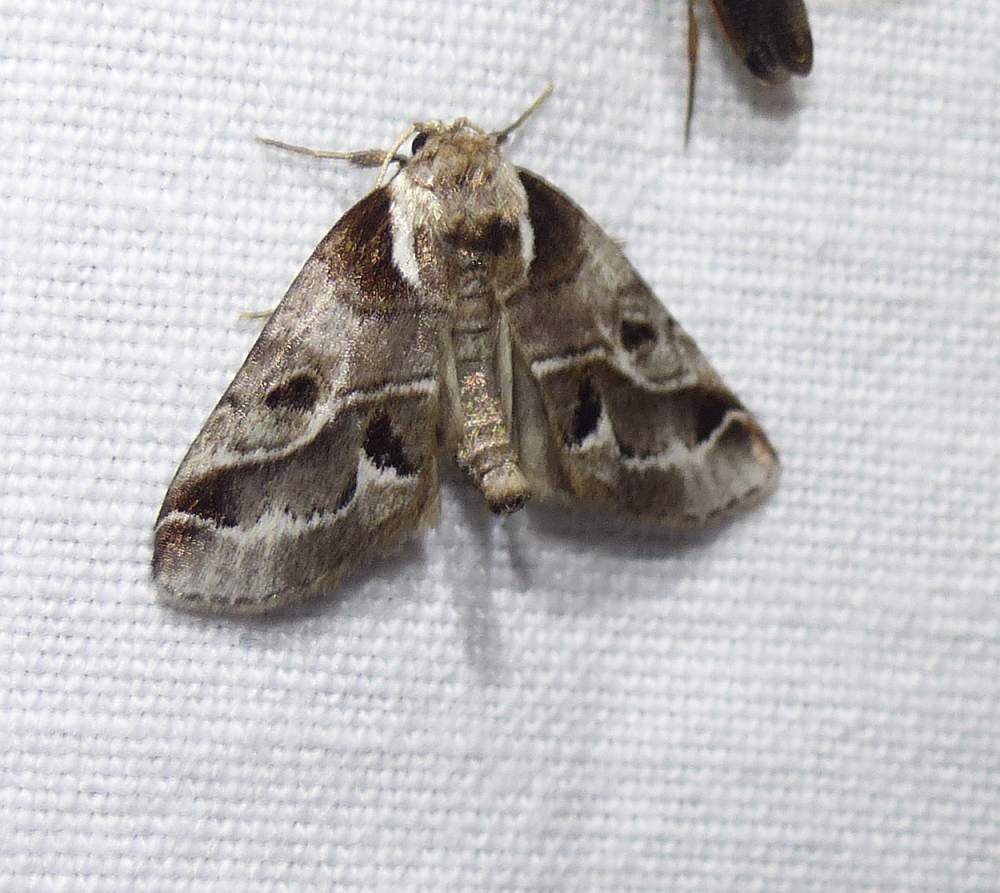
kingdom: Animalia
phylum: Arthropoda
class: Insecta
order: Lepidoptera
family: Nolidae
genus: Baileya
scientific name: Baileya doubledayi
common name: Doubleday's baileya moth
